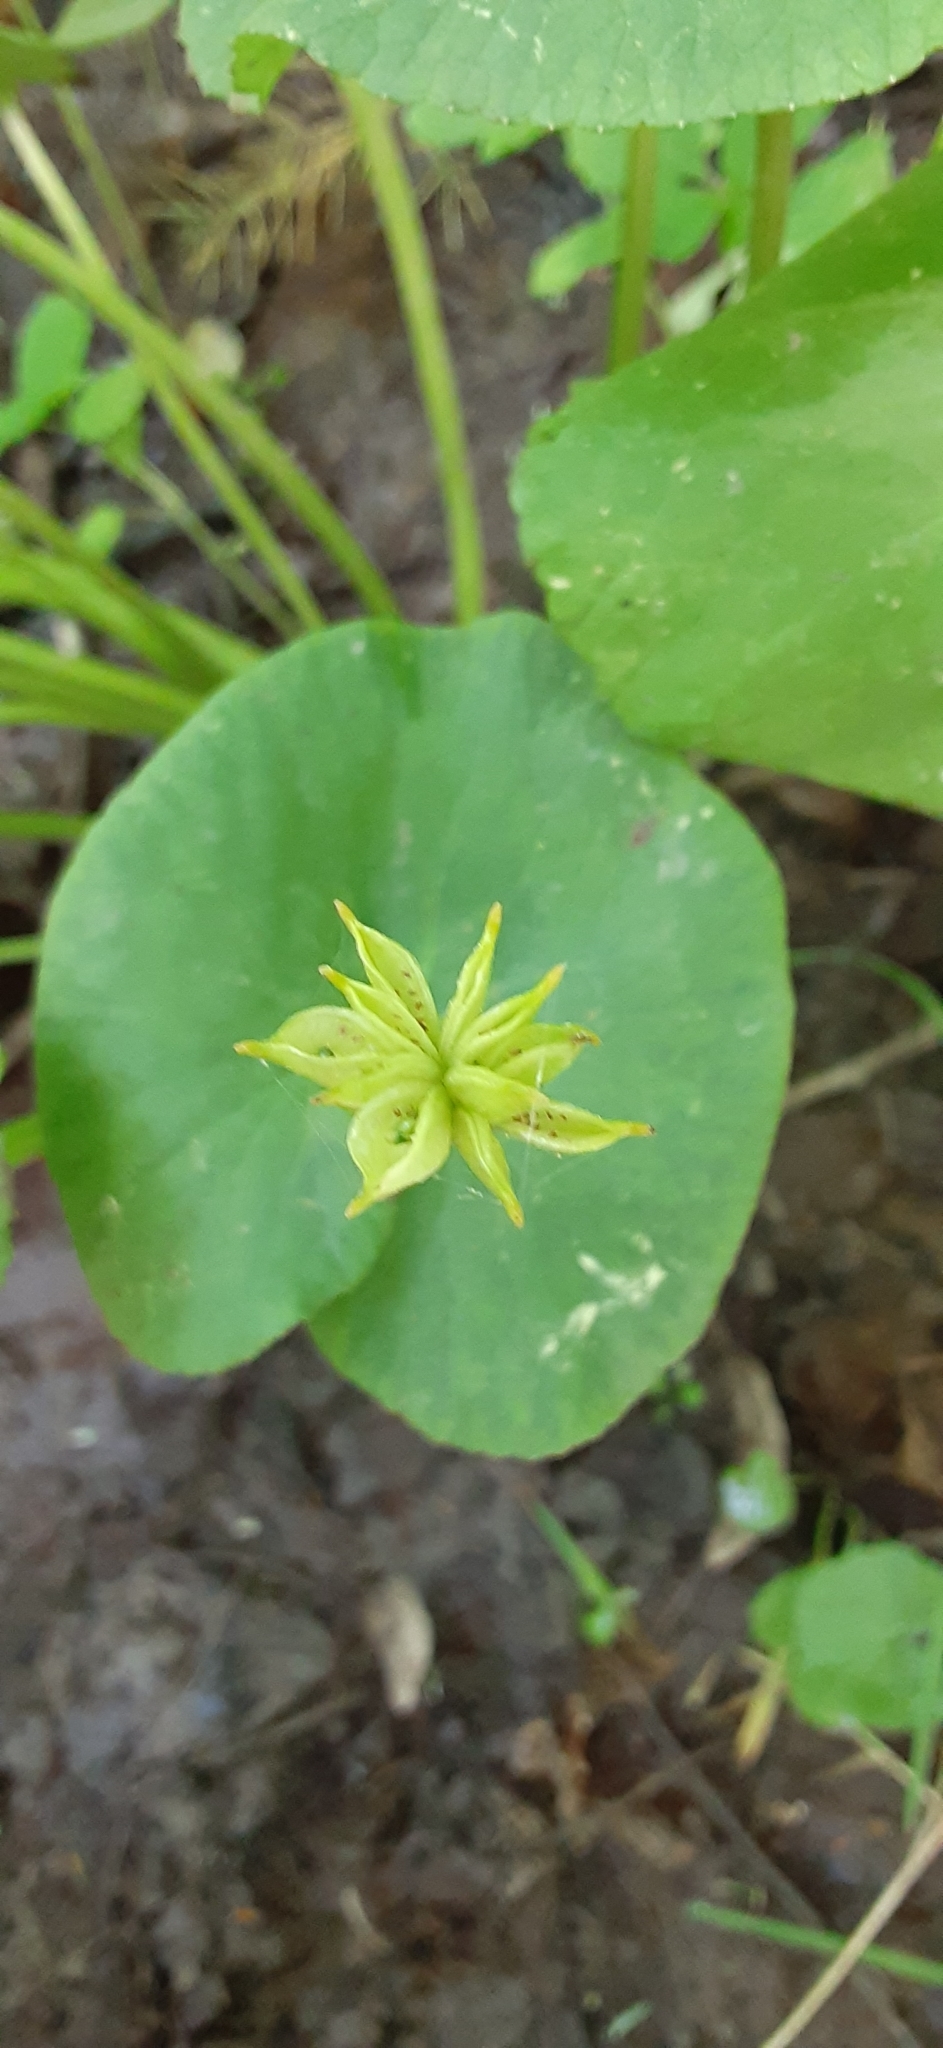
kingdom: Plantae
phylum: Tracheophyta
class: Magnoliopsida
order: Ranunculales
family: Ranunculaceae
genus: Caltha
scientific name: Caltha palustris
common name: Marsh marigold
